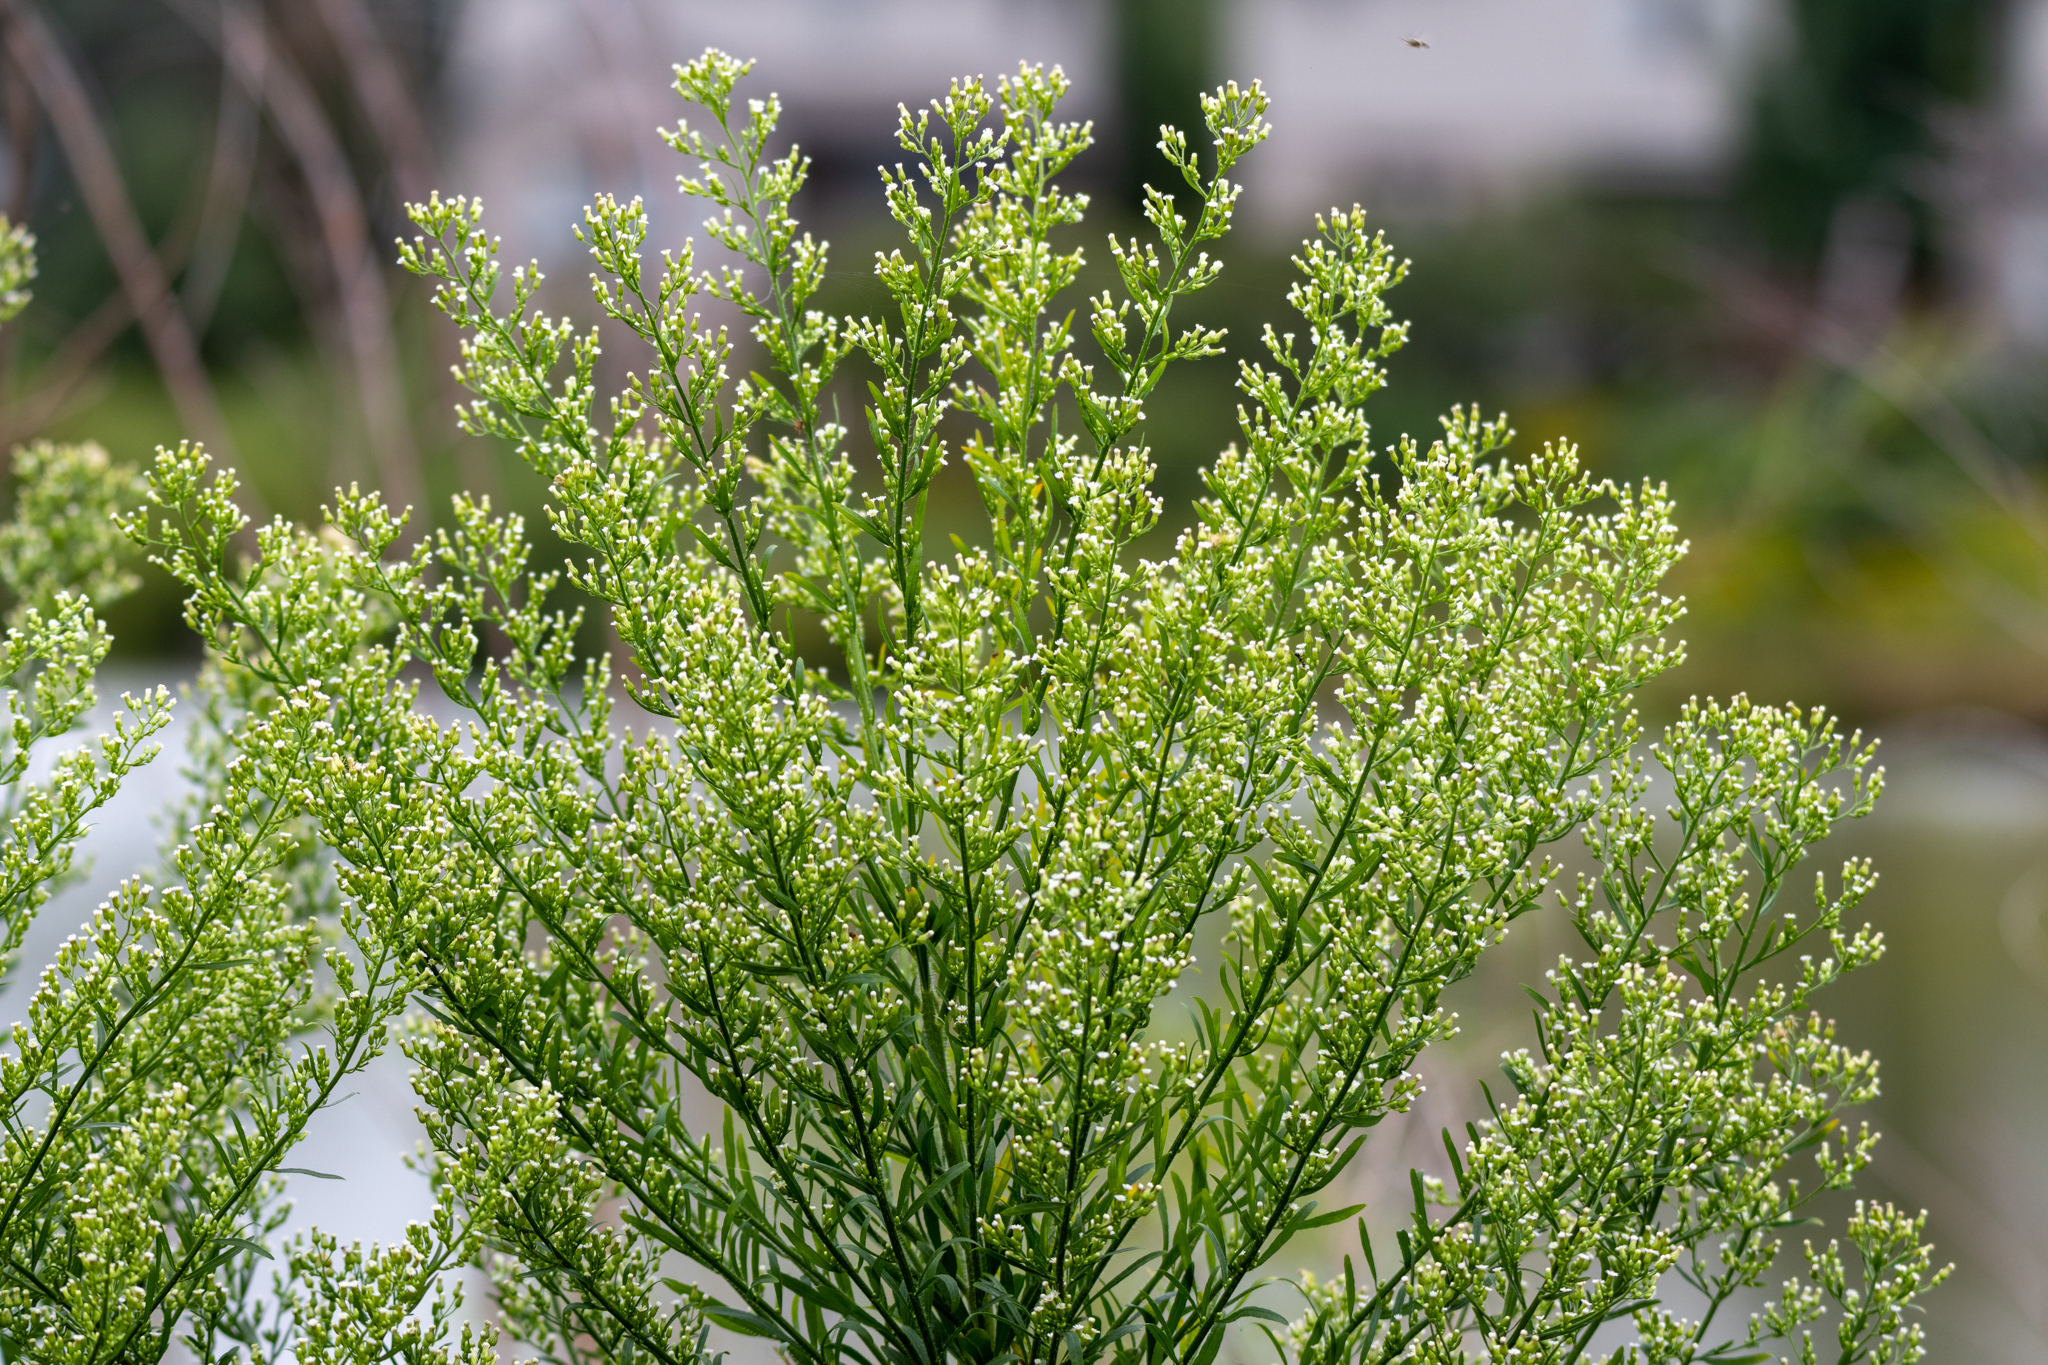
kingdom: Plantae
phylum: Tracheophyta
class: Magnoliopsida
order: Asterales
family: Asteraceae
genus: Erigeron
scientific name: Erigeron canadensis
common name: Canadian fleabane
